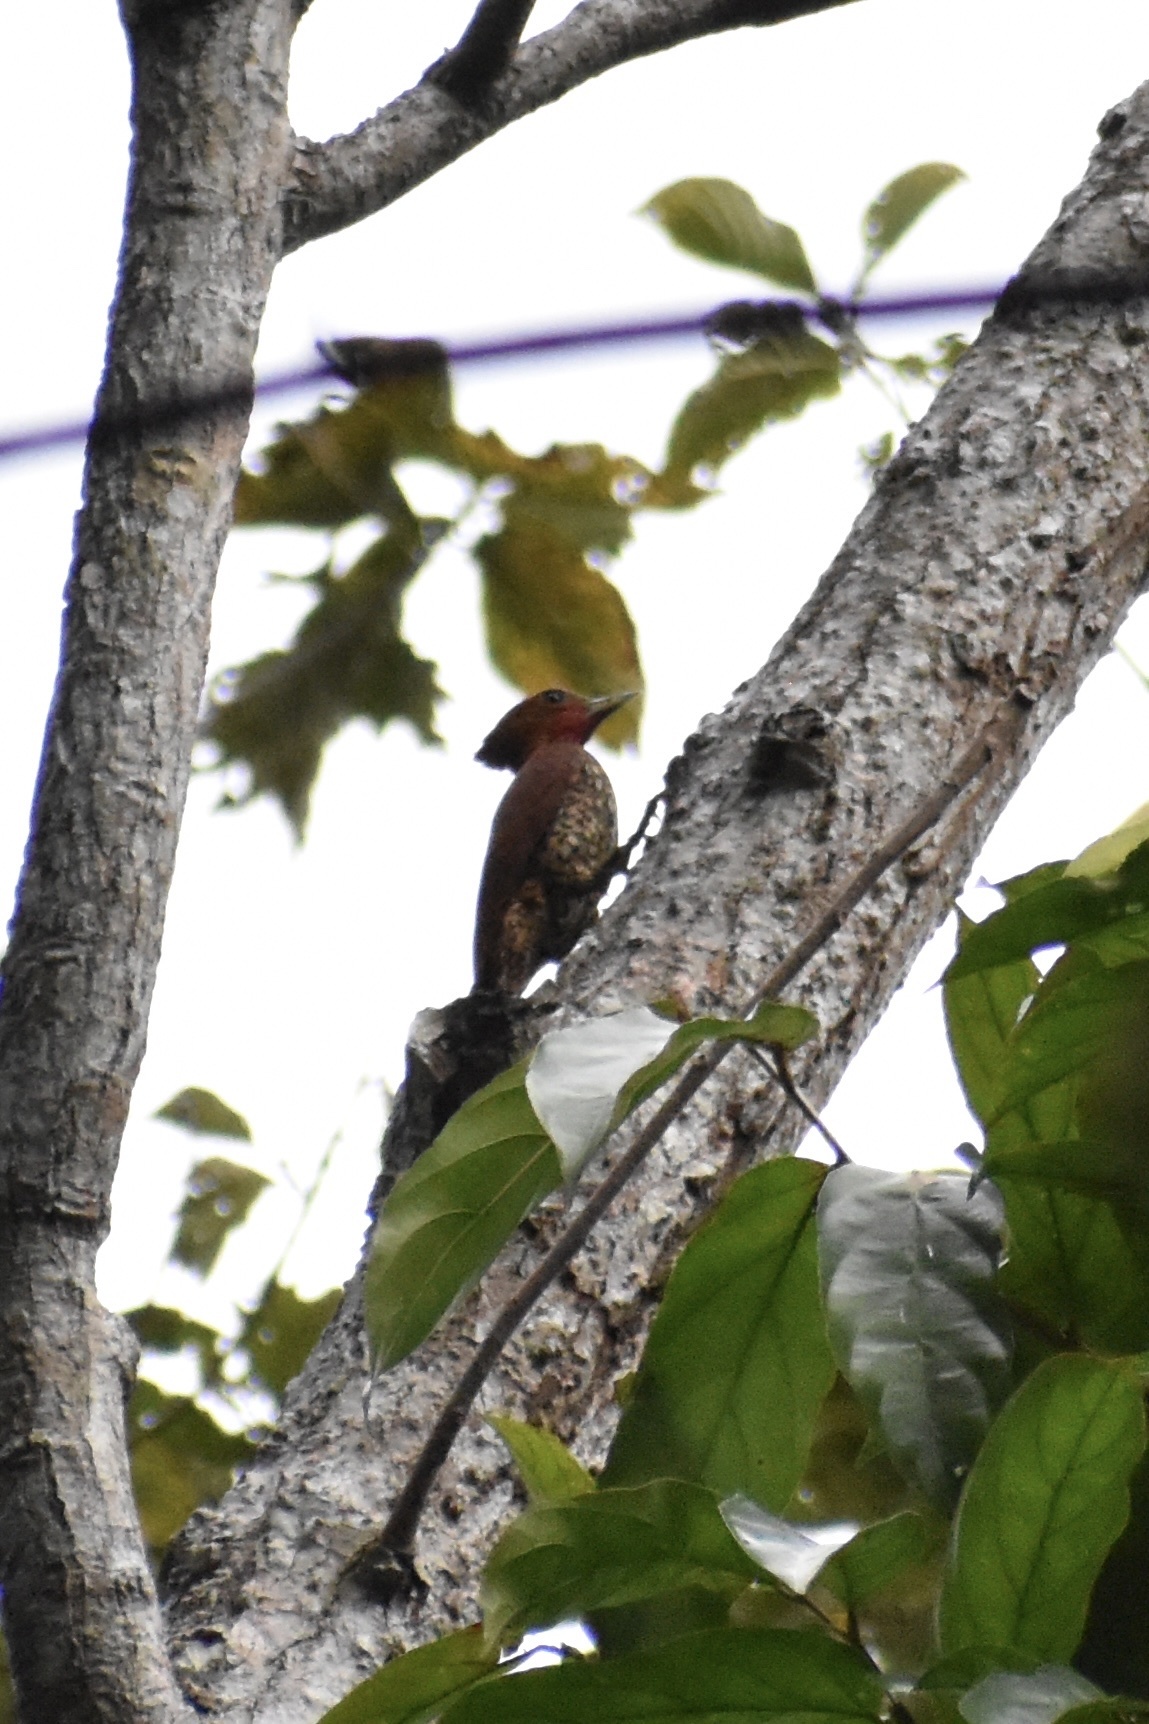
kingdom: Animalia
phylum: Chordata
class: Aves
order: Piciformes
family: Picidae
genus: Celeus
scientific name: Celeus loricatus
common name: Cinnamon woodpecker
